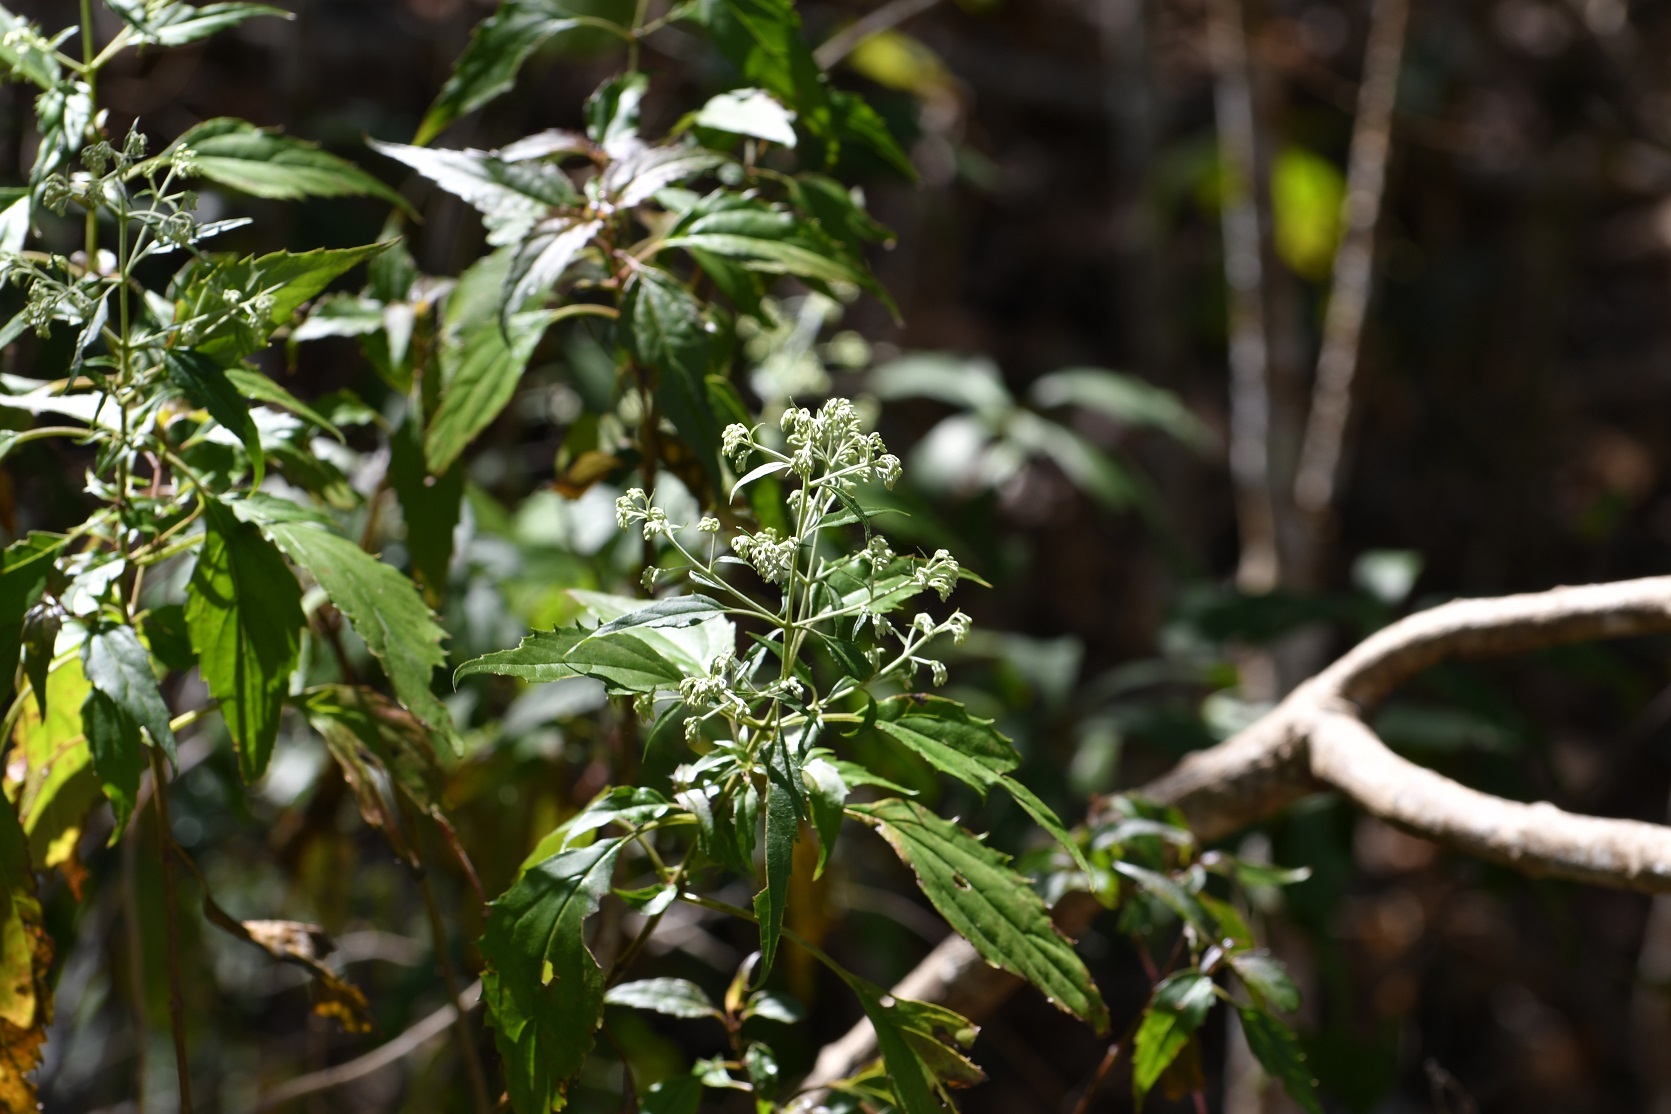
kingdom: Plantae
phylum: Tracheophyta
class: Magnoliopsida
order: Asterales
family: Asteraceae
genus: Fleischmanniopsis
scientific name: Fleischmanniopsis leucocephala
